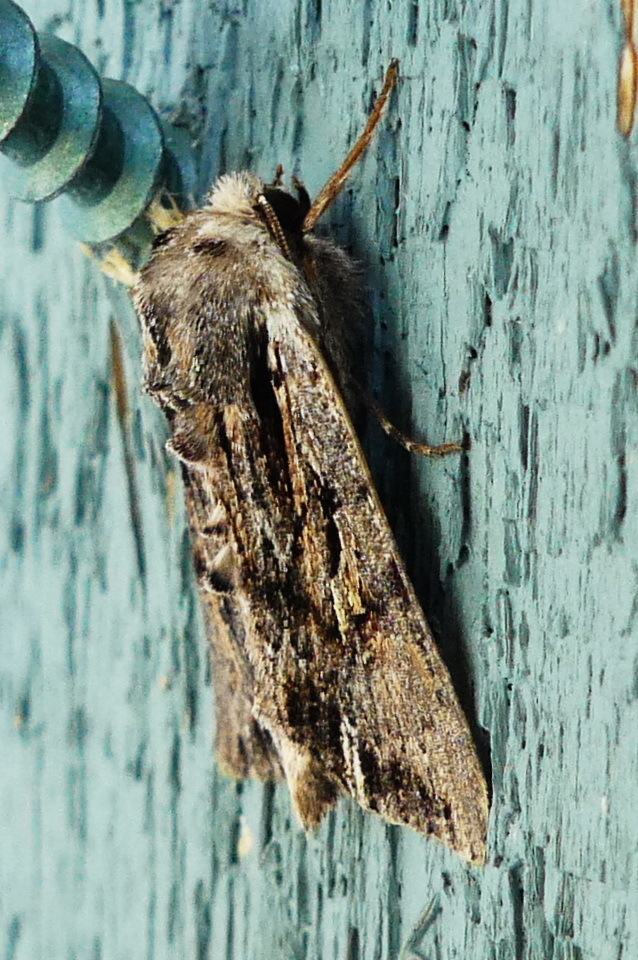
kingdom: Animalia
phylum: Arthropoda
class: Insecta
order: Lepidoptera
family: Noctuidae
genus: Achatia
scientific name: Achatia evicta
